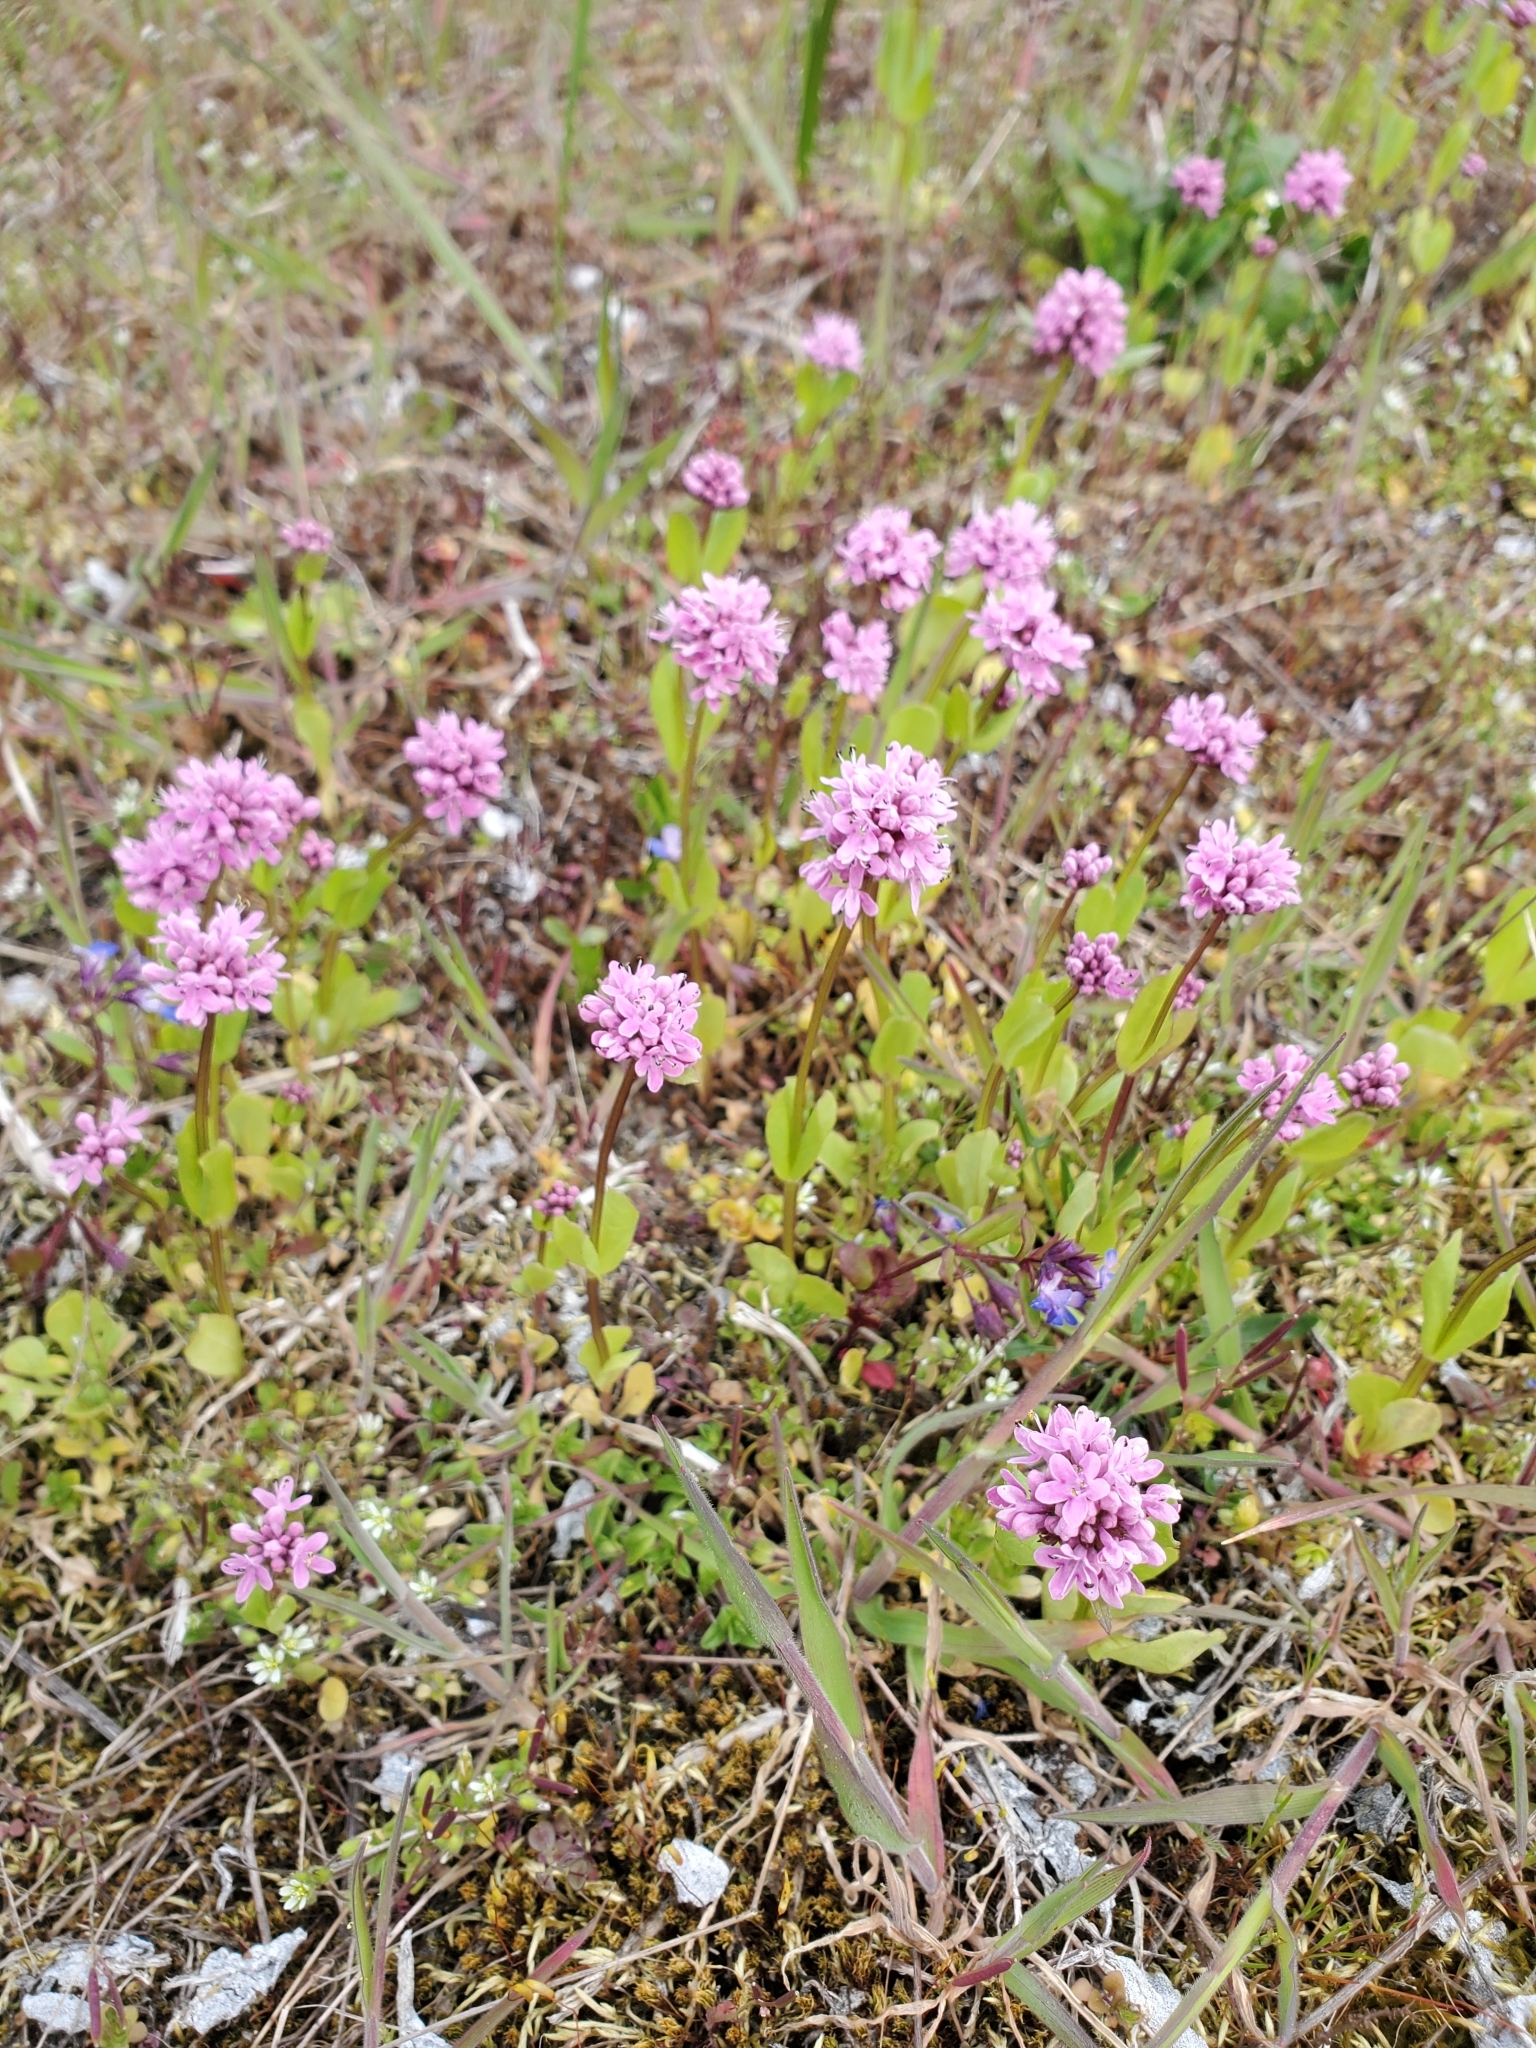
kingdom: Plantae
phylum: Tracheophyta
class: Magnoliopsida
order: Dipsacales
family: Caprifoliaceae
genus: Plectritis
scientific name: Plectritis congesta
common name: Pink plectritis
